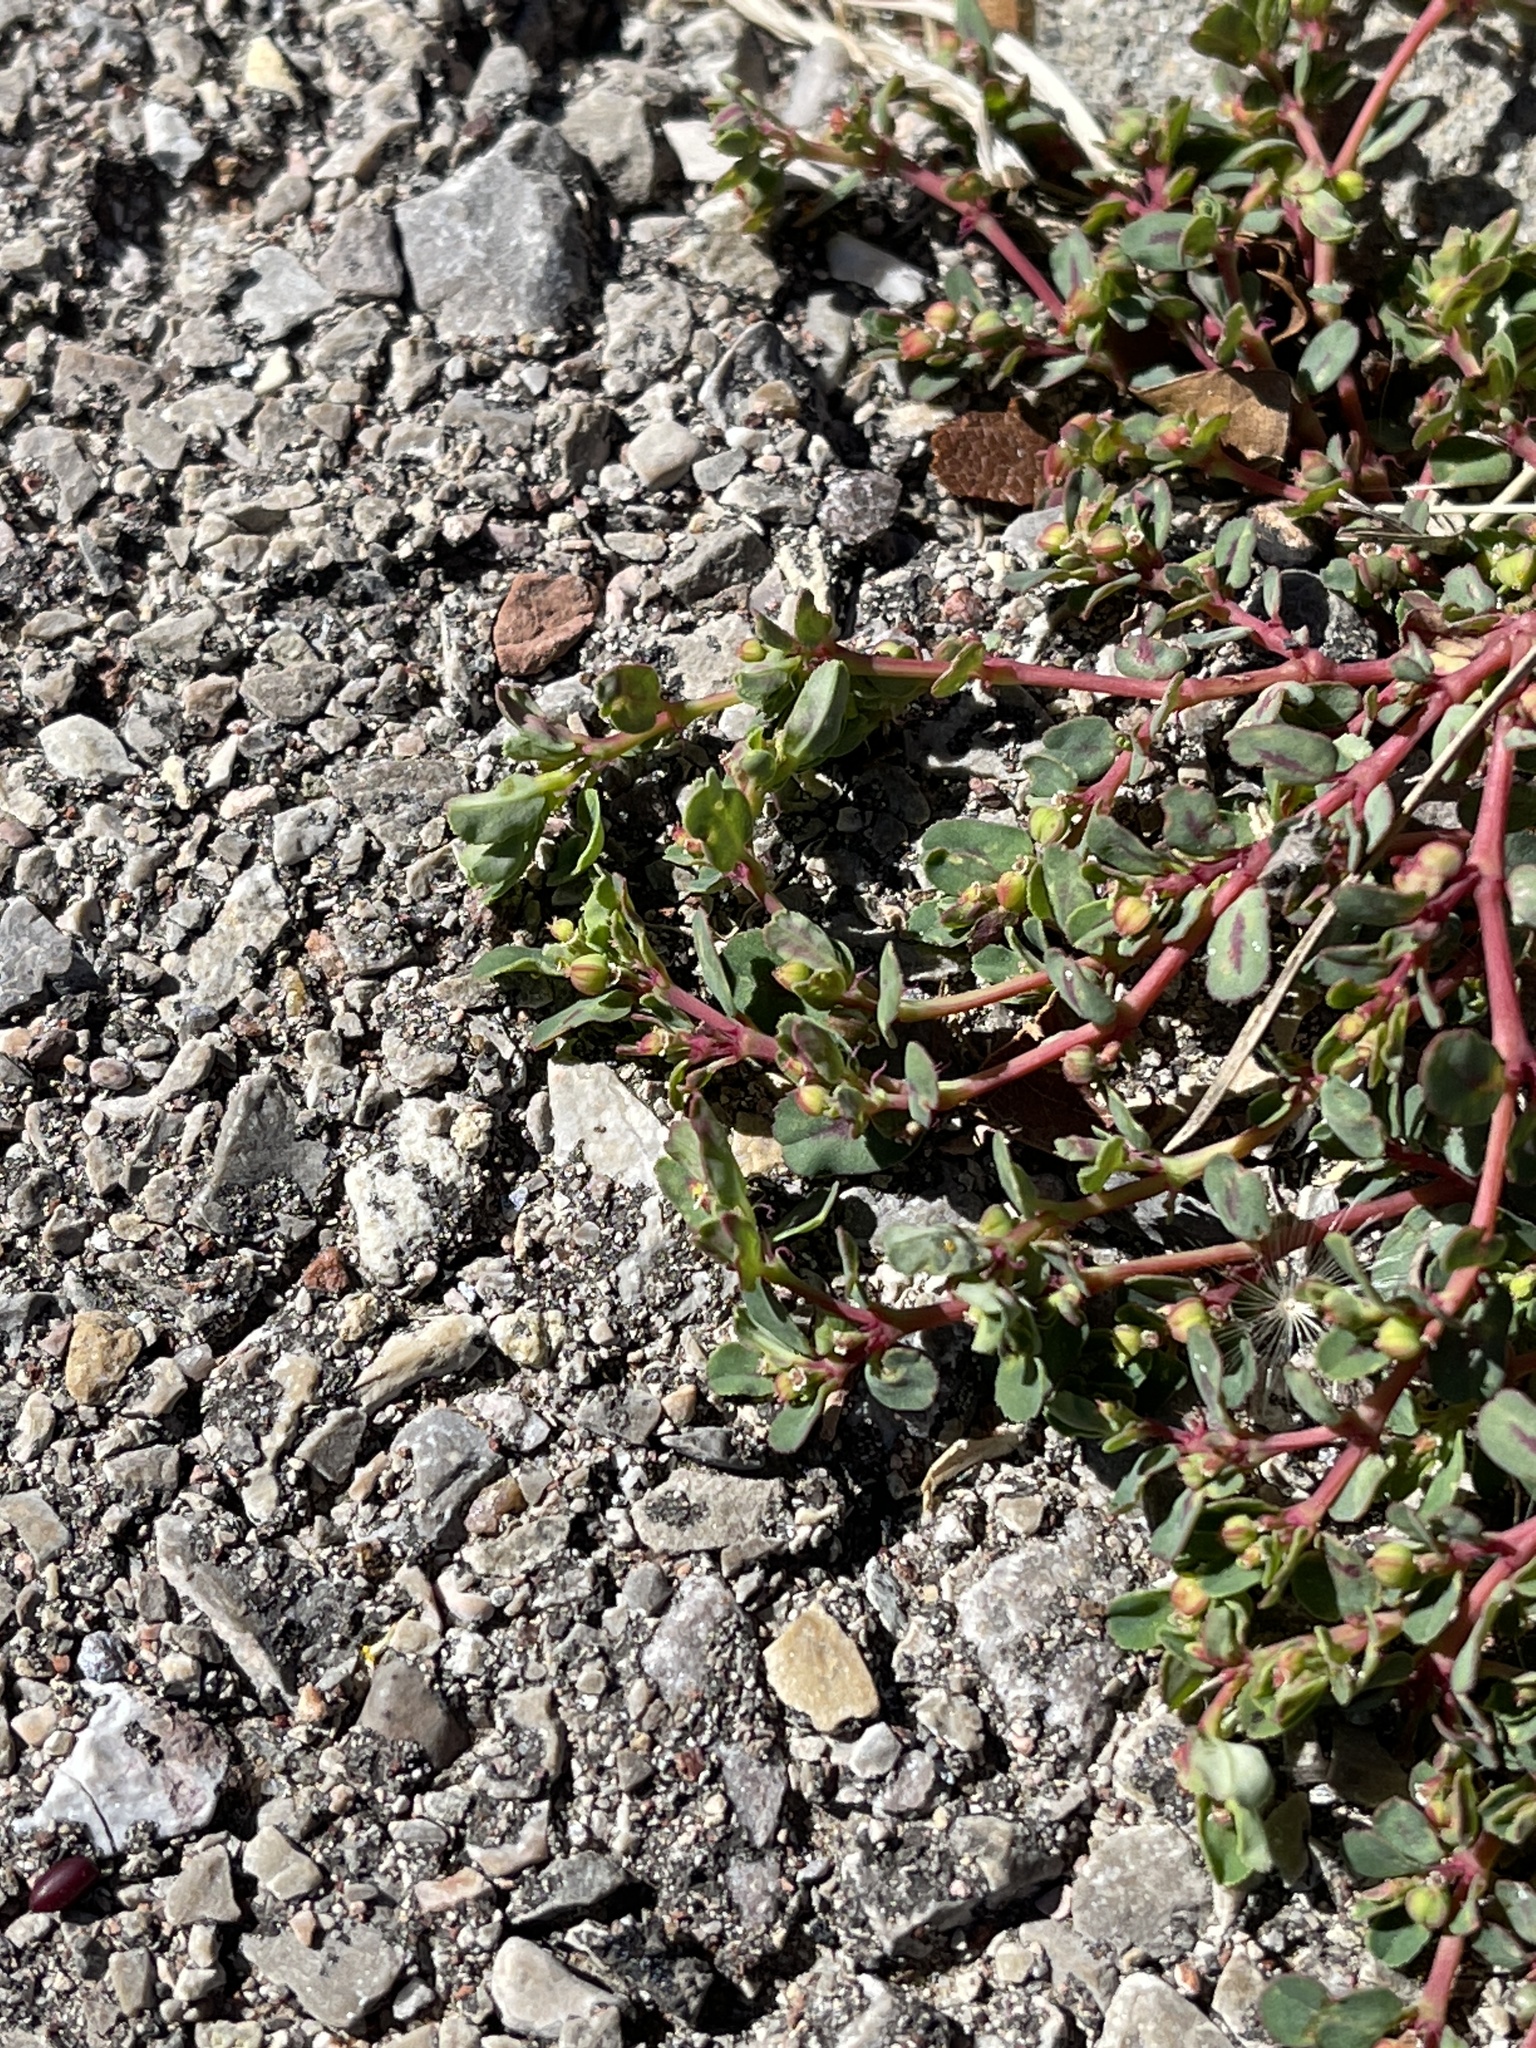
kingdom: Plantae
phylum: Tracheophyta
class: Magnoliopsida
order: Malpighiales
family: Euphorbiaceae
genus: Euphorbia
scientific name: Euphorbia serpillifolia
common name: Thyme-leaf spurge
